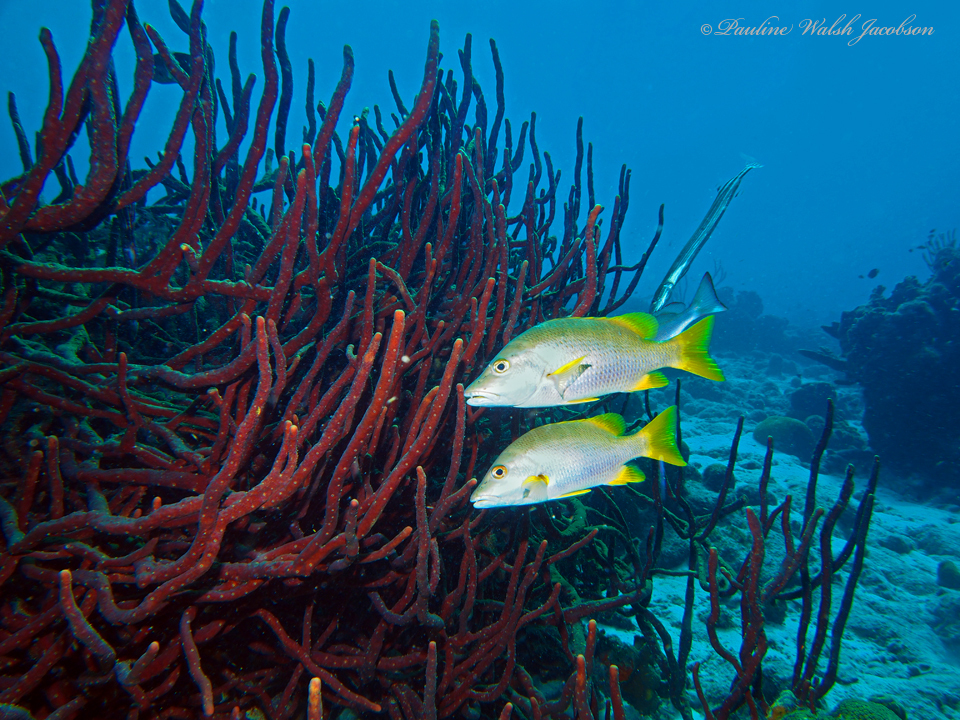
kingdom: Animalia
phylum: Chordata
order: Perciformes
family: Lutjanidae
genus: Lutjanus
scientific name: Lutjanus apodus
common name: Schoolmaster
